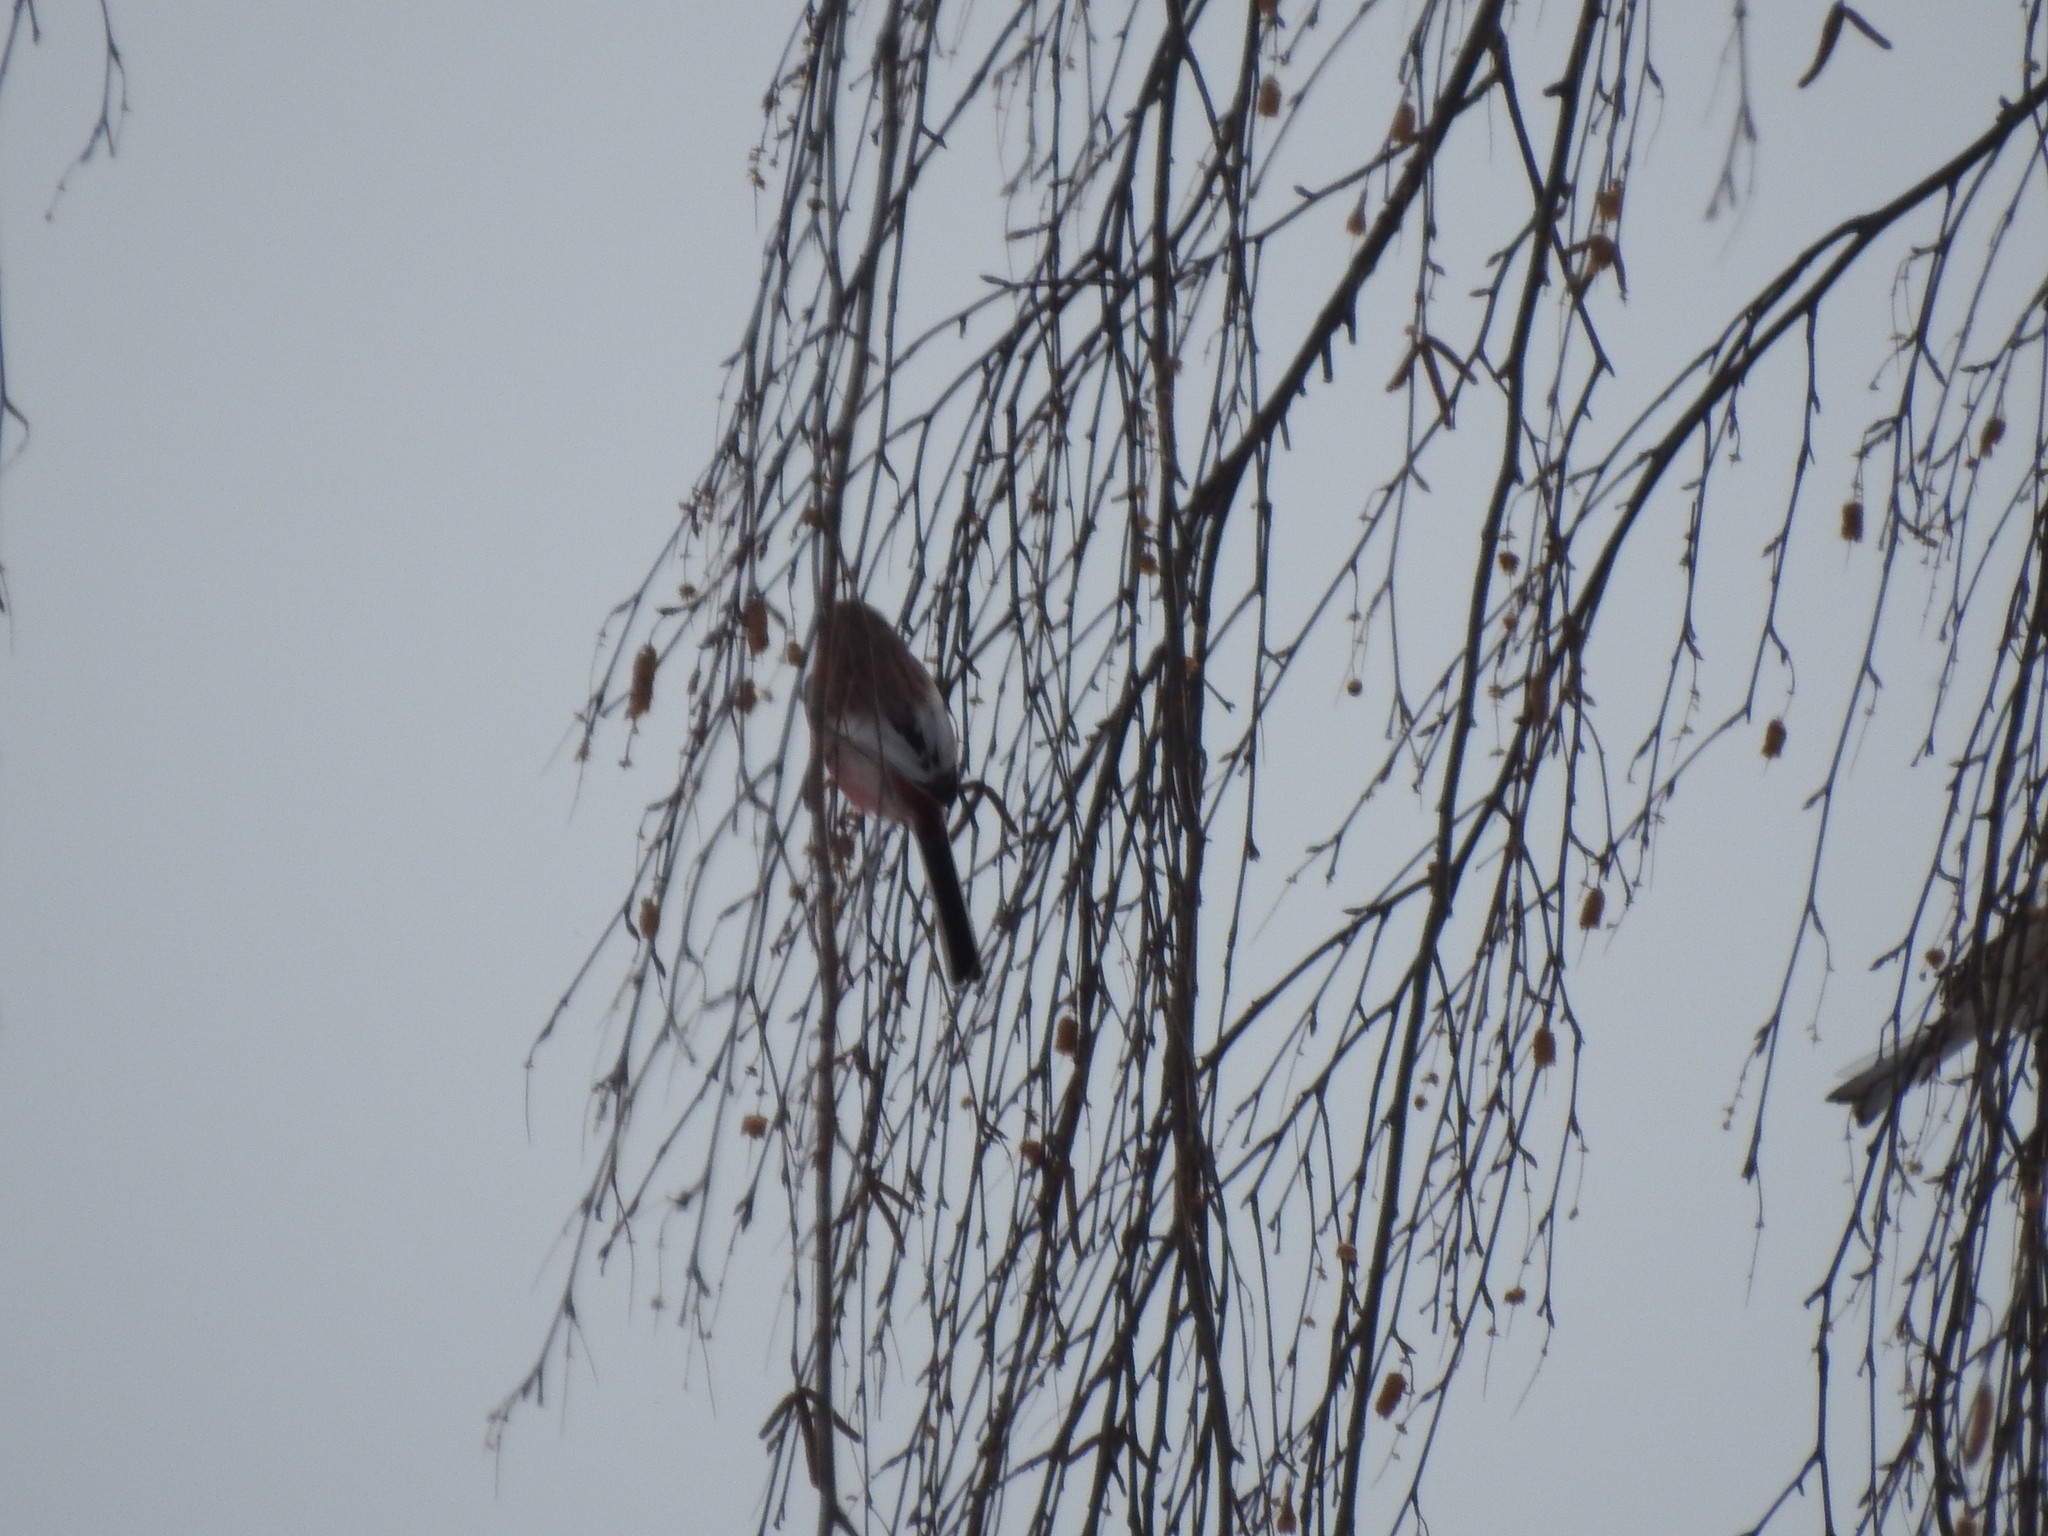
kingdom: Animalia
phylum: Chordata
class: Aves
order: Passeriformes
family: Fringillidae
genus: Carpodacus
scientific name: Carpodacus sibiricus
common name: Long-tailed rosefinch
